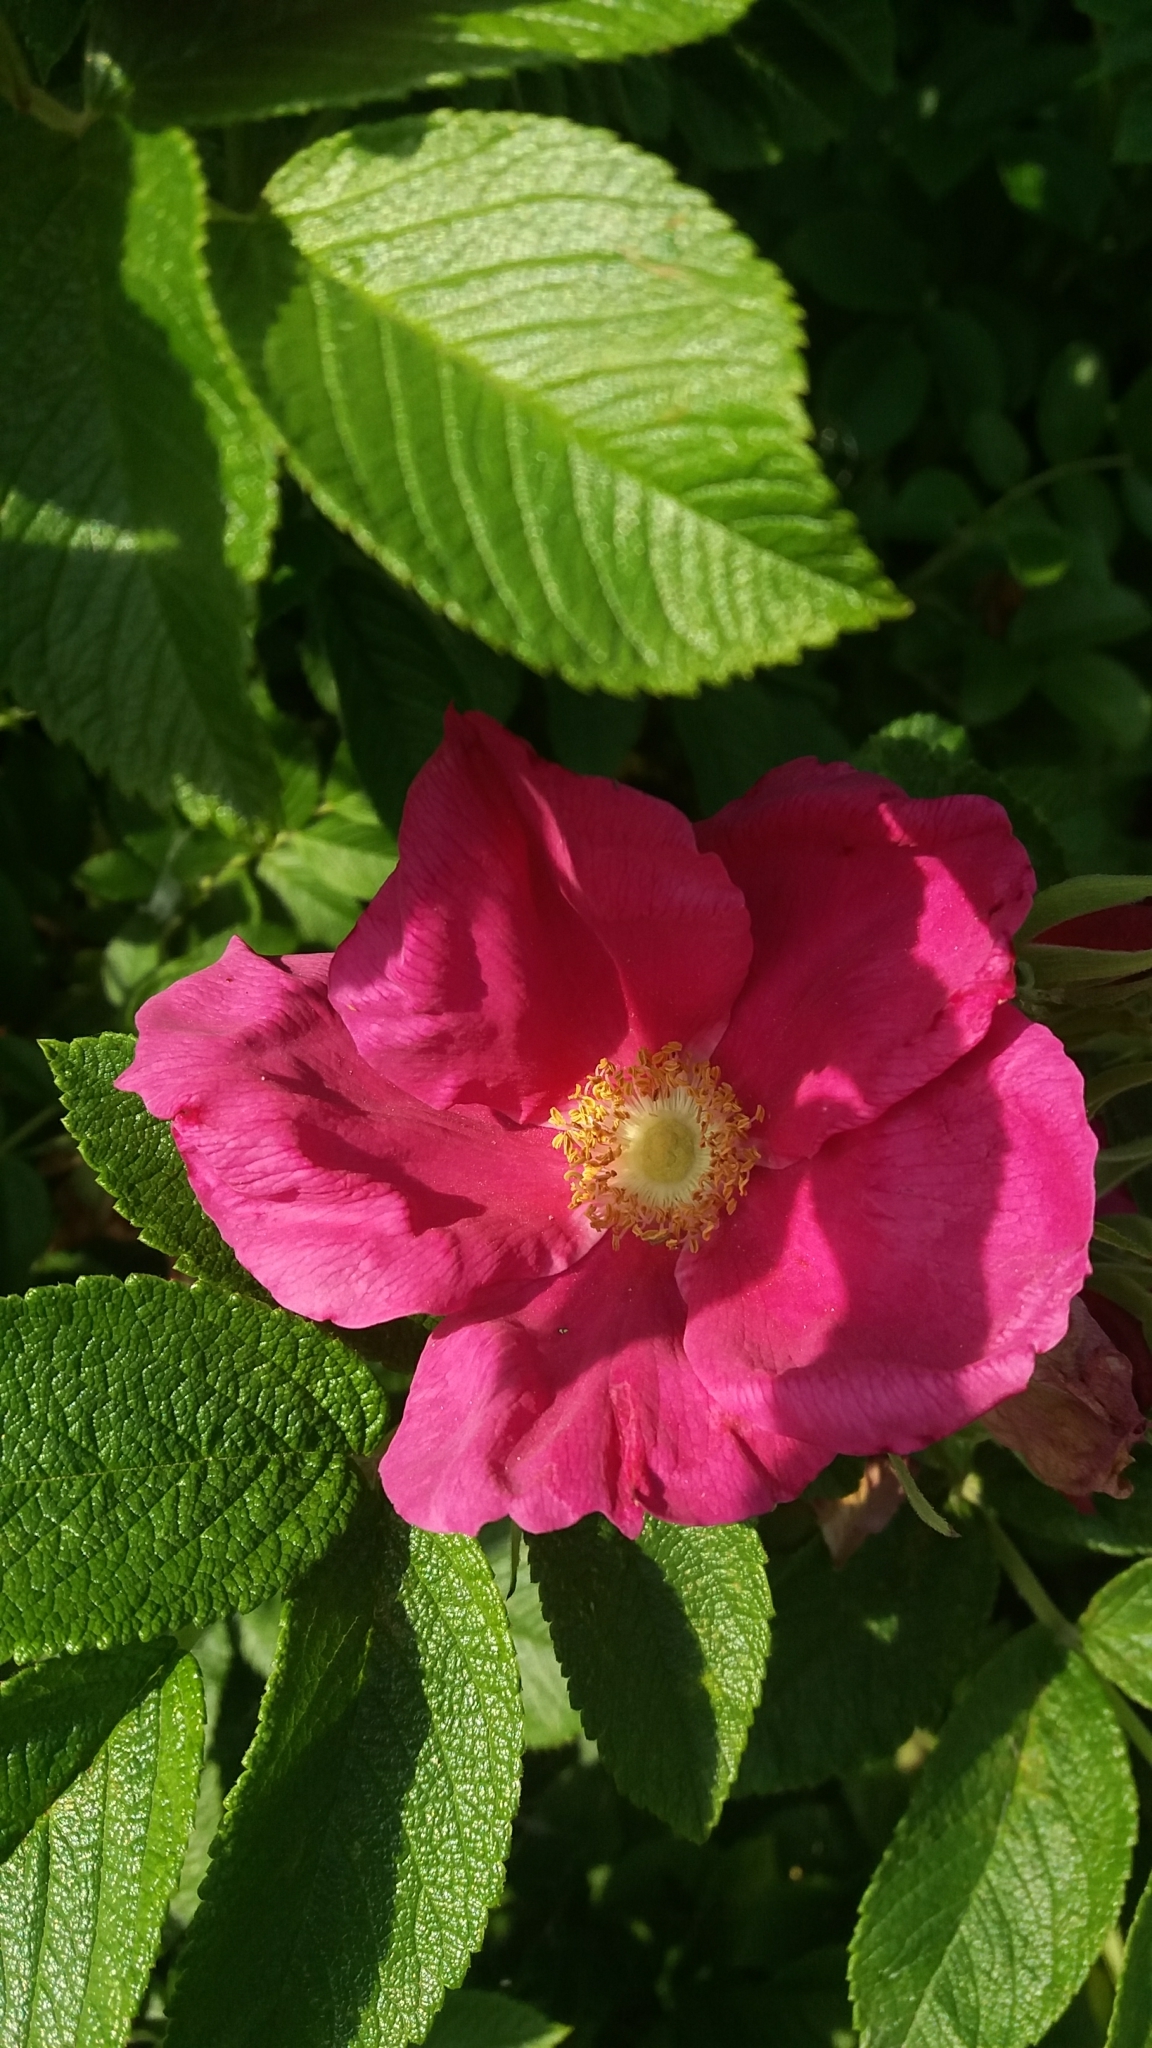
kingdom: Plantae
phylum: Tracheophyta
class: Magnoliopsida
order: Rosales
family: Rosaceae
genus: Rosa
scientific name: Rosa rugosa
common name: Japanese rose
